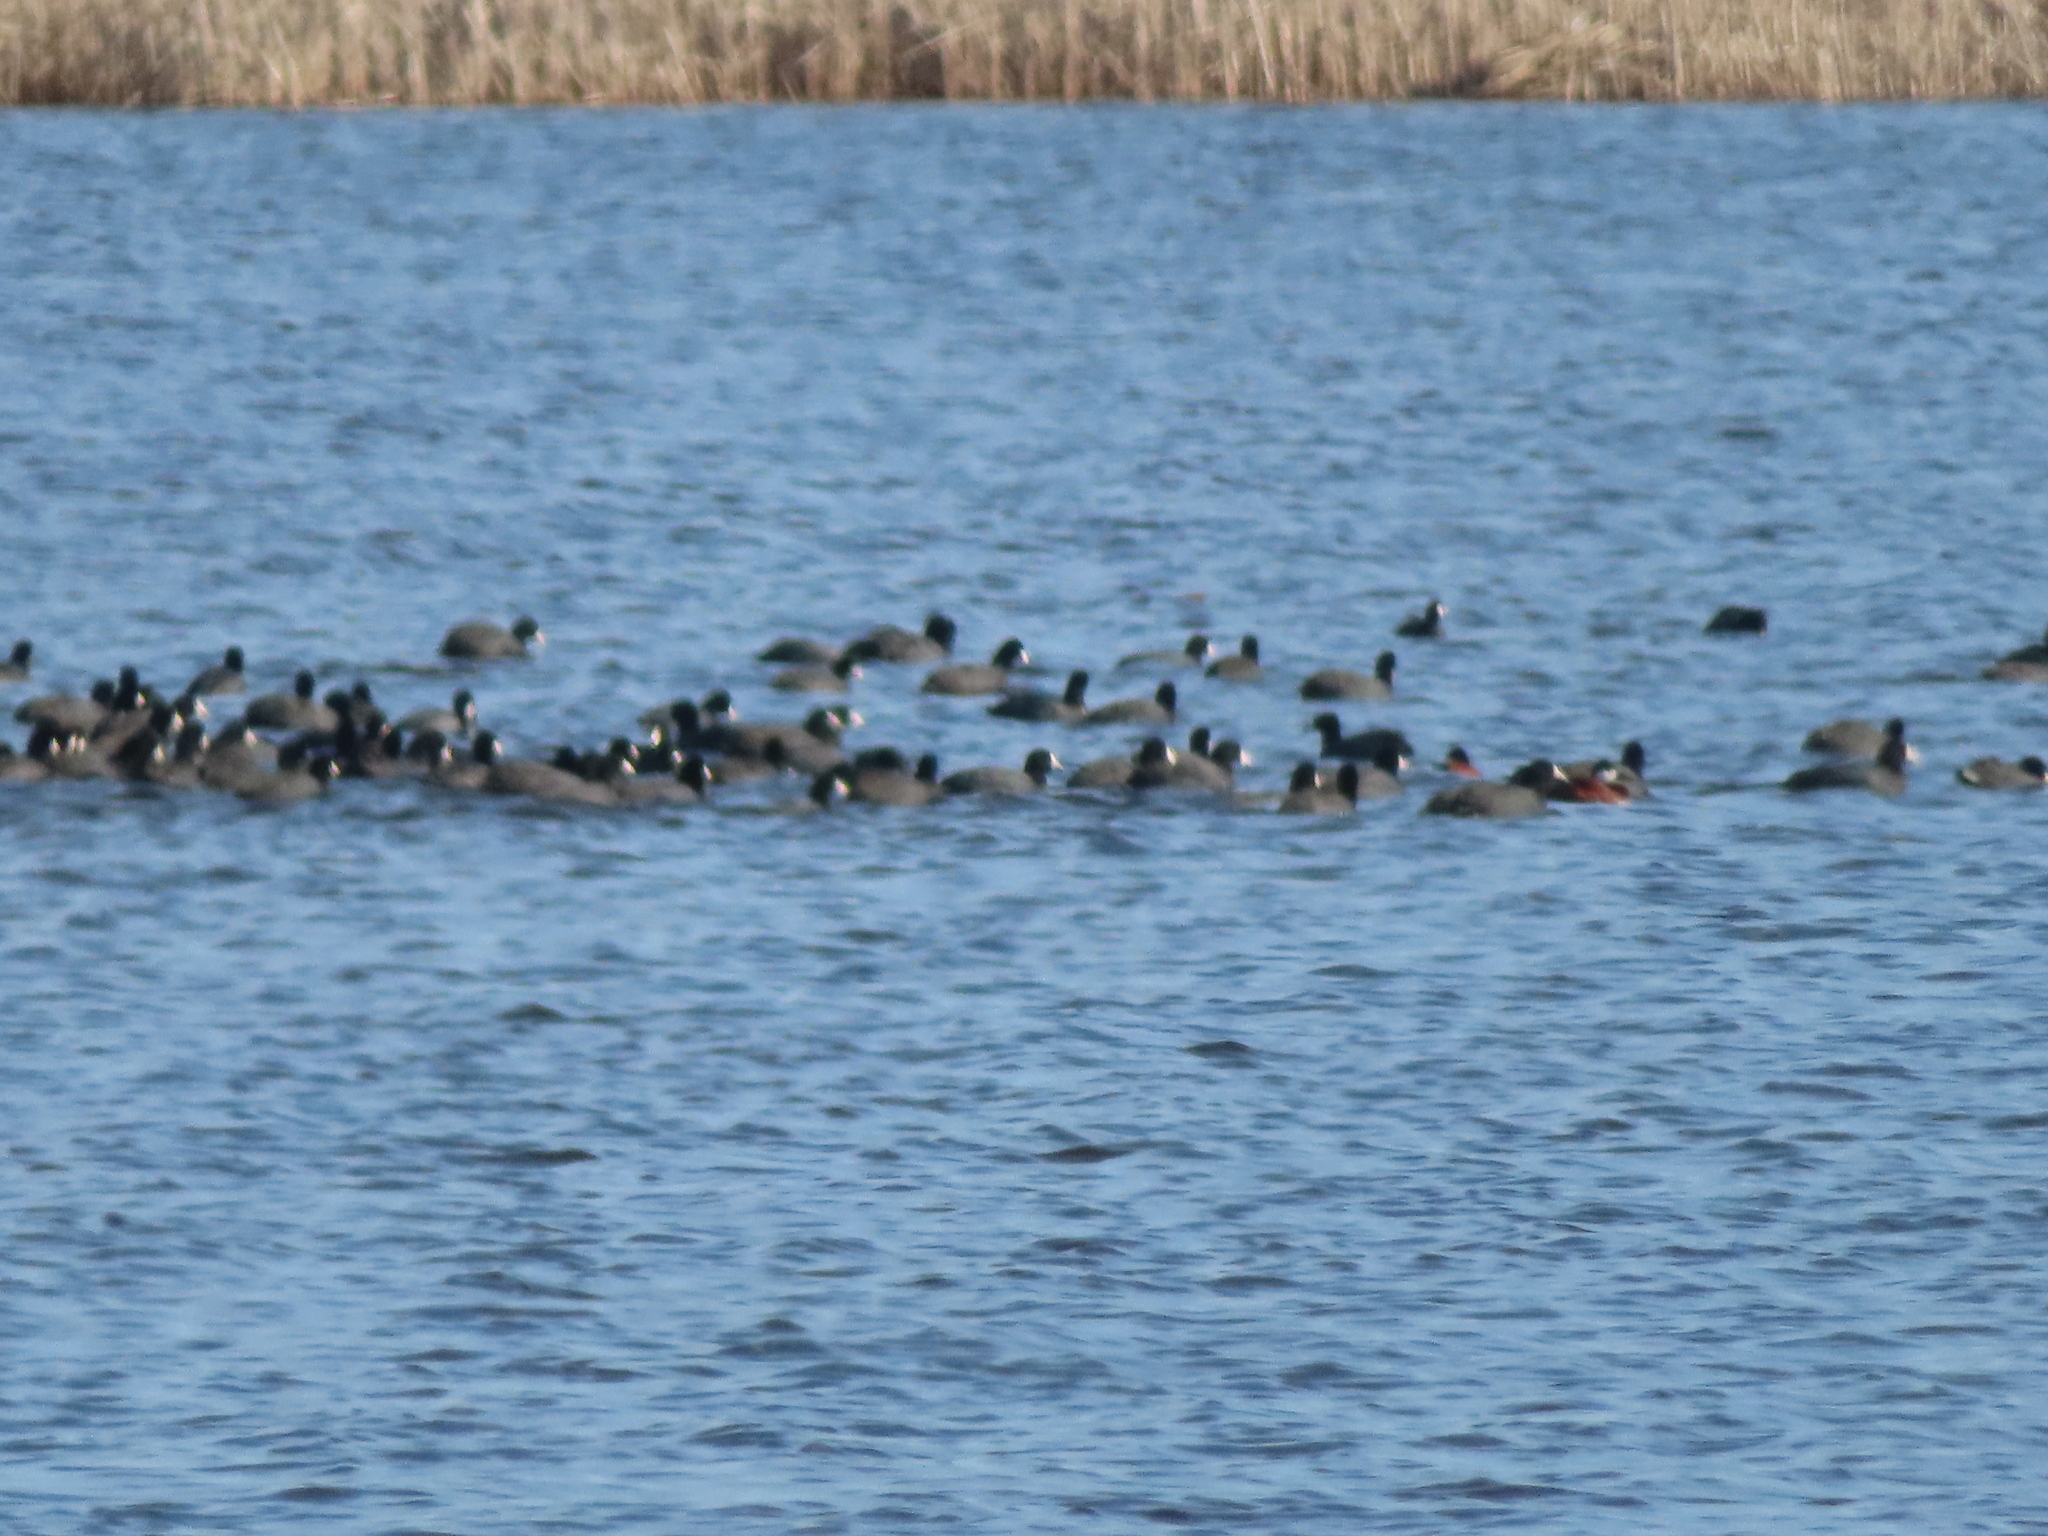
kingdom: Animalia
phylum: Chordata
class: Aves
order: Gruiformes
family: Rallidae
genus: Fulica
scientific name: Fulica americana
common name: American coot
